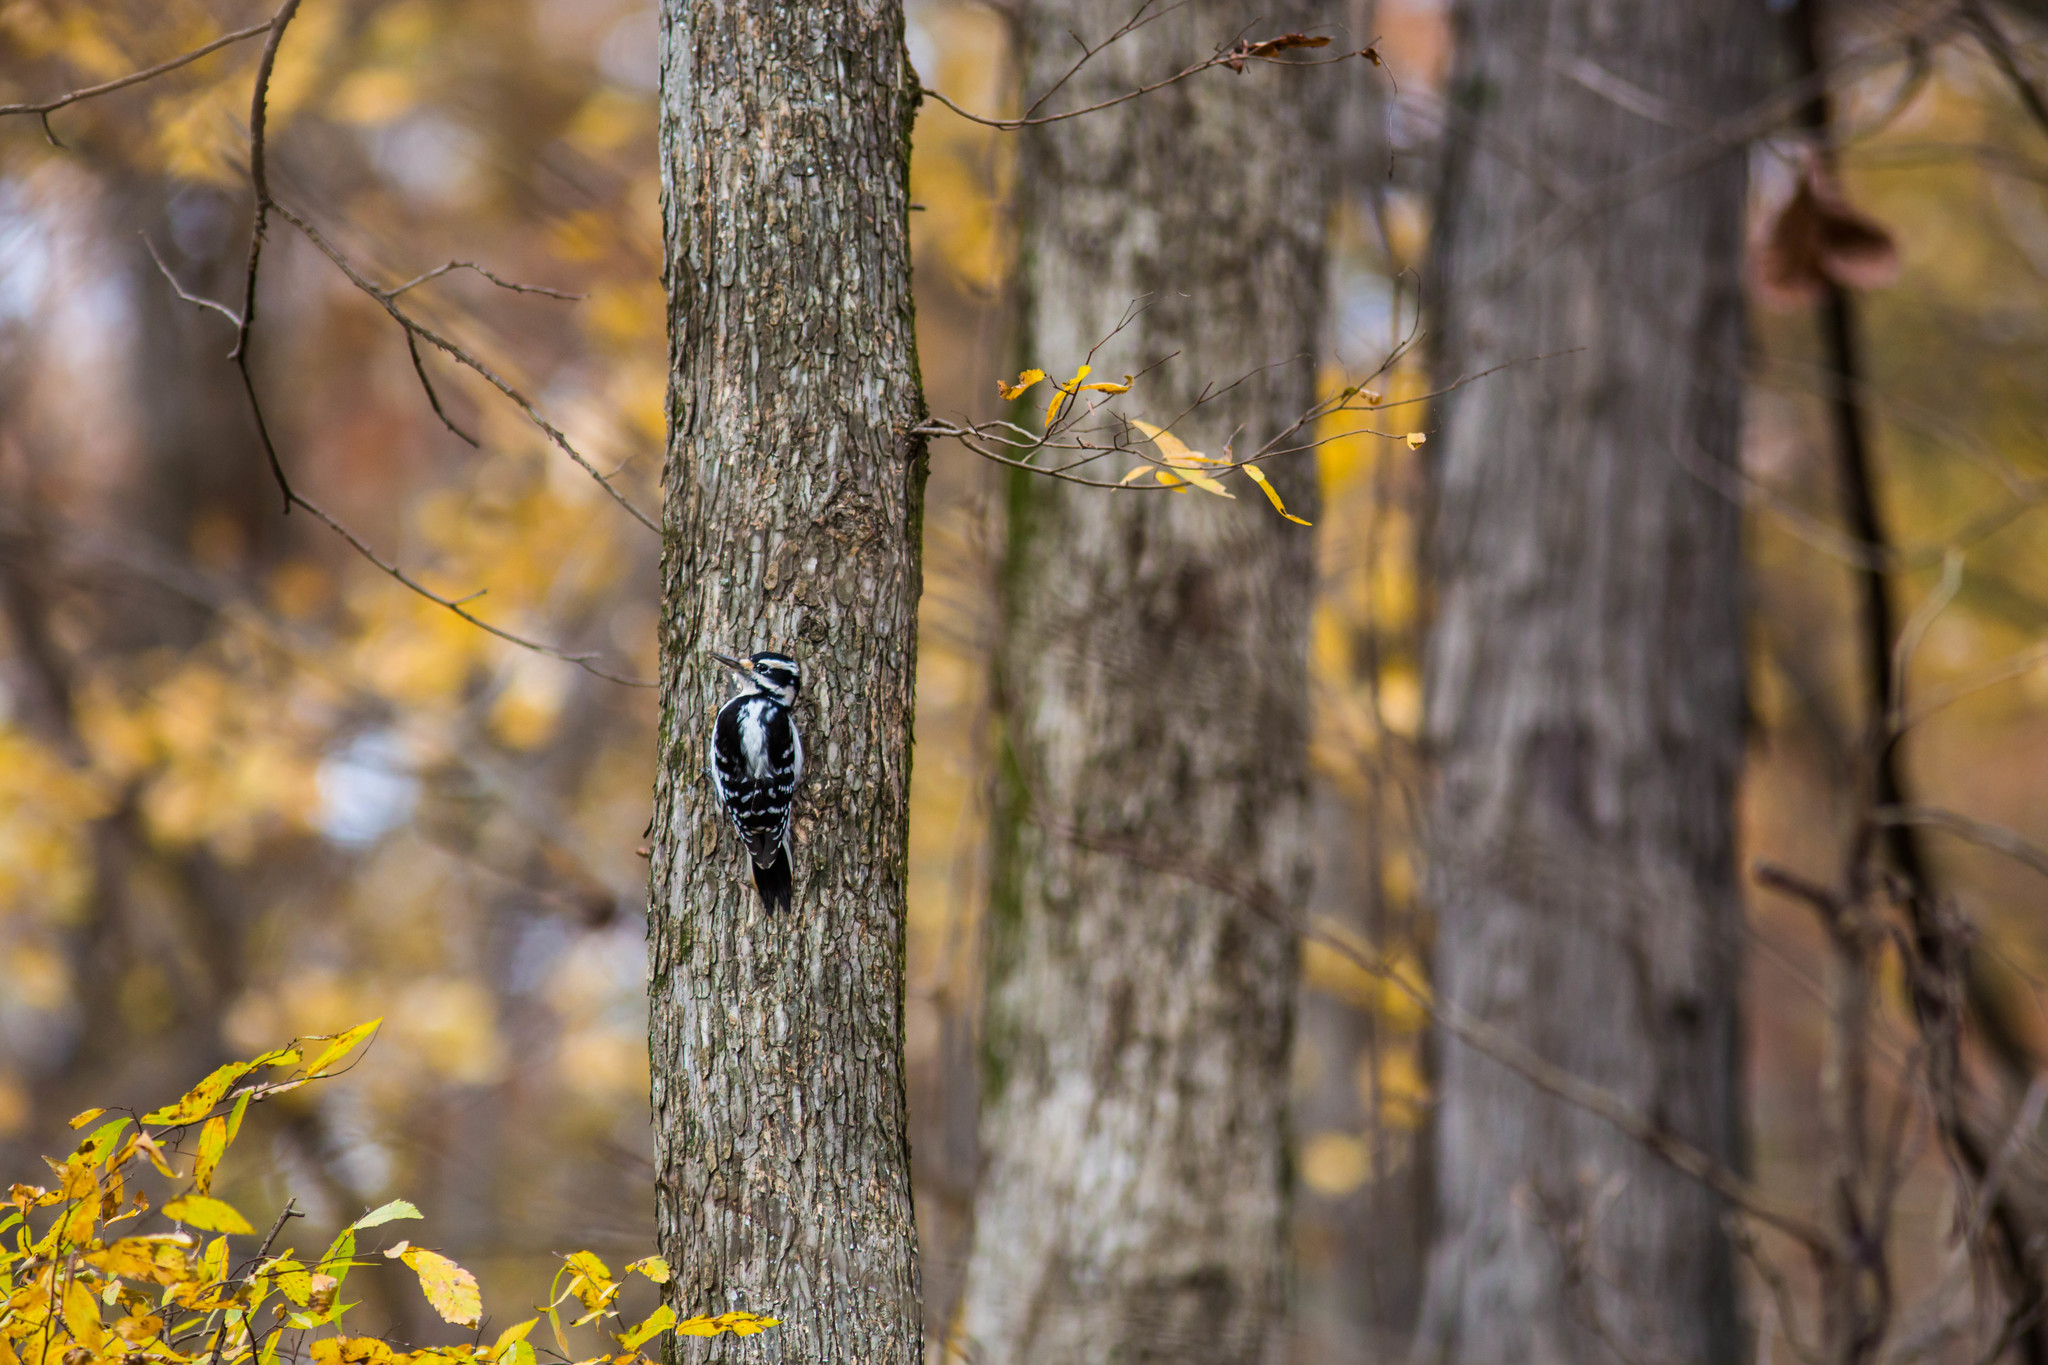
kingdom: Animalia
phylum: Chordata
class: Aves
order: Piciformes
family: Picidae
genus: Leuconotopicus
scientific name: Leuconotopicus villosus
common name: Hairy woodpecker
